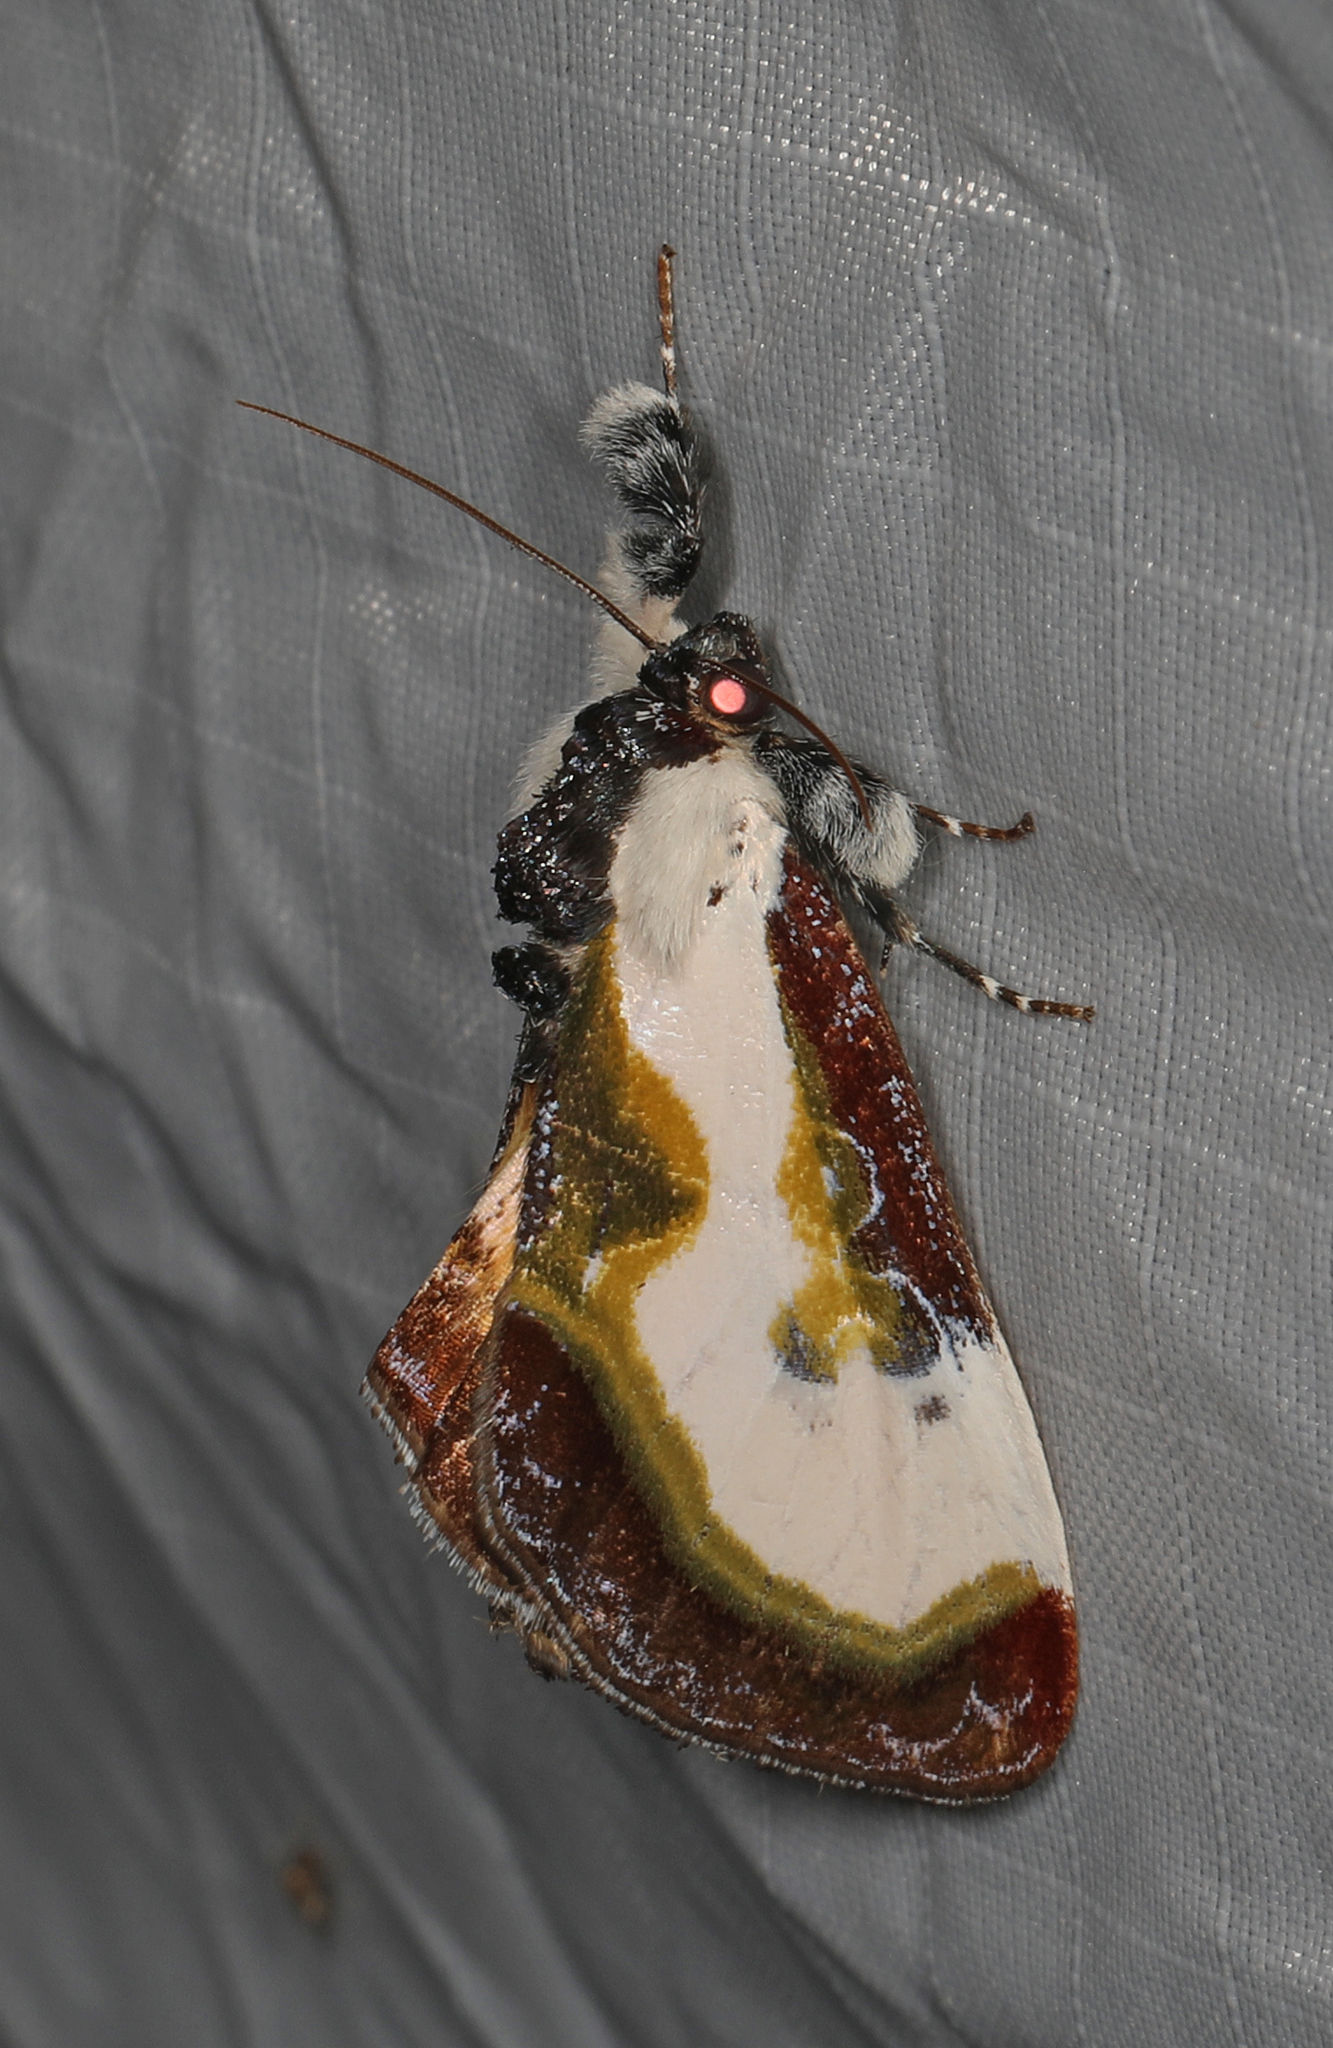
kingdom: Animalia
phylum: Arthropoda
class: Insecta
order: Lepidoptera
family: Noctuidae
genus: Eudryas
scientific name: Eudryas grata
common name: Beautiful wood-nymph
